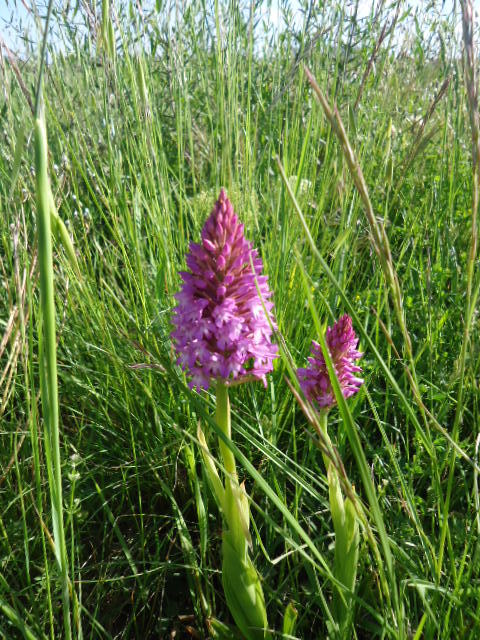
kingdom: Plantae
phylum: Tracheophyta
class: Liliopsida
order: Asparagales
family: Orchidaceae
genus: Anacamptis
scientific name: Anacamptis pyramidalis
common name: Pyramidal orchid
